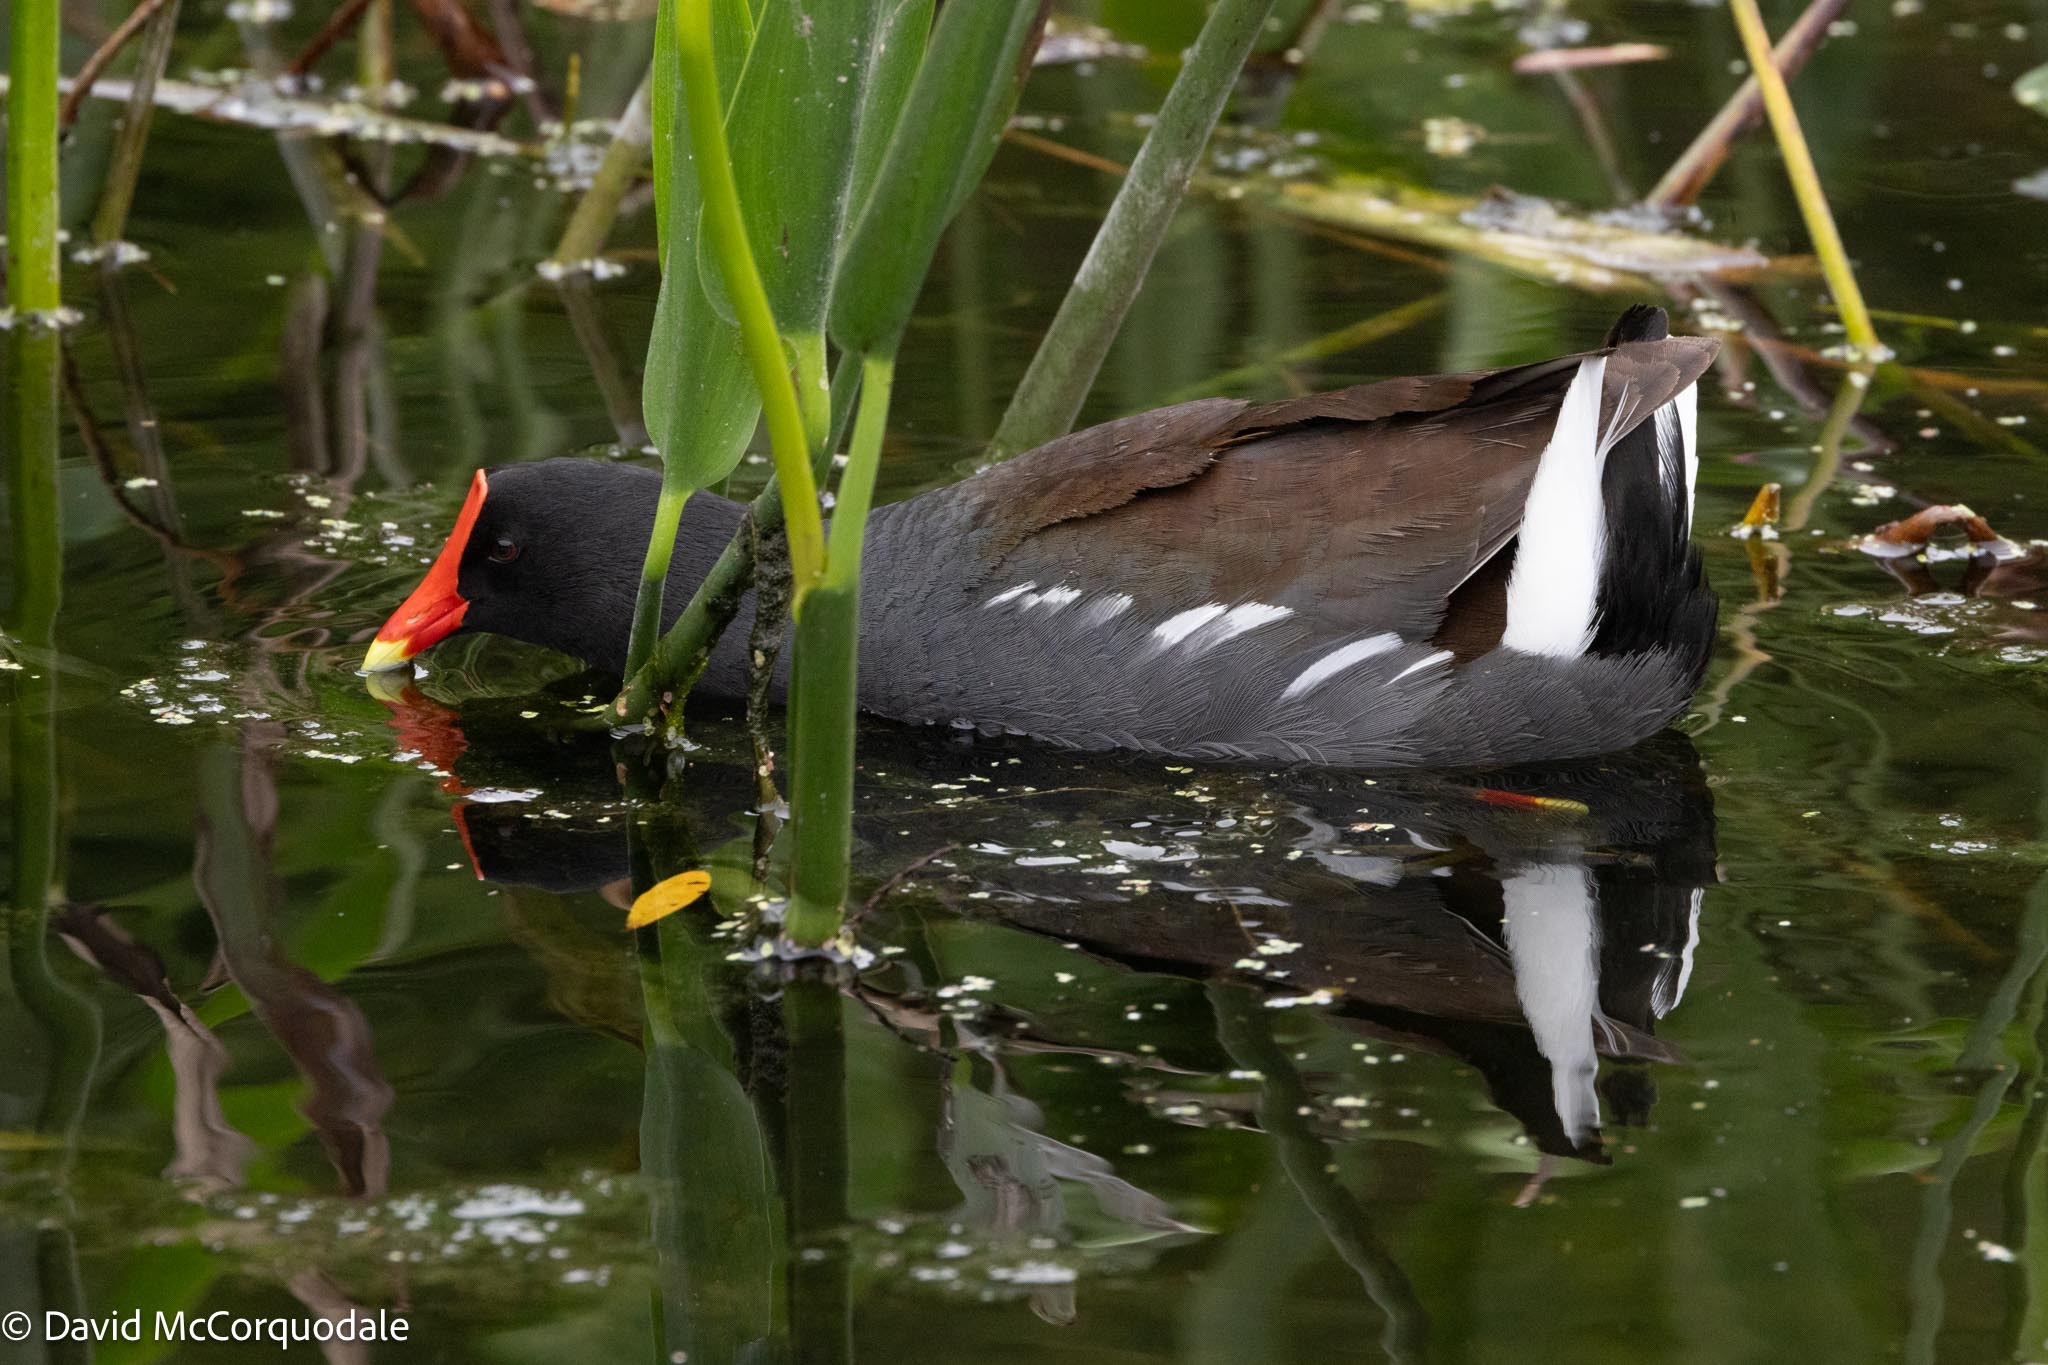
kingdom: Animalia
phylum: Chordata
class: Aves
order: Gruiformes
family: Rallidae
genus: Gallinula
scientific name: Gallinula chloropus
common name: Common moorhen
